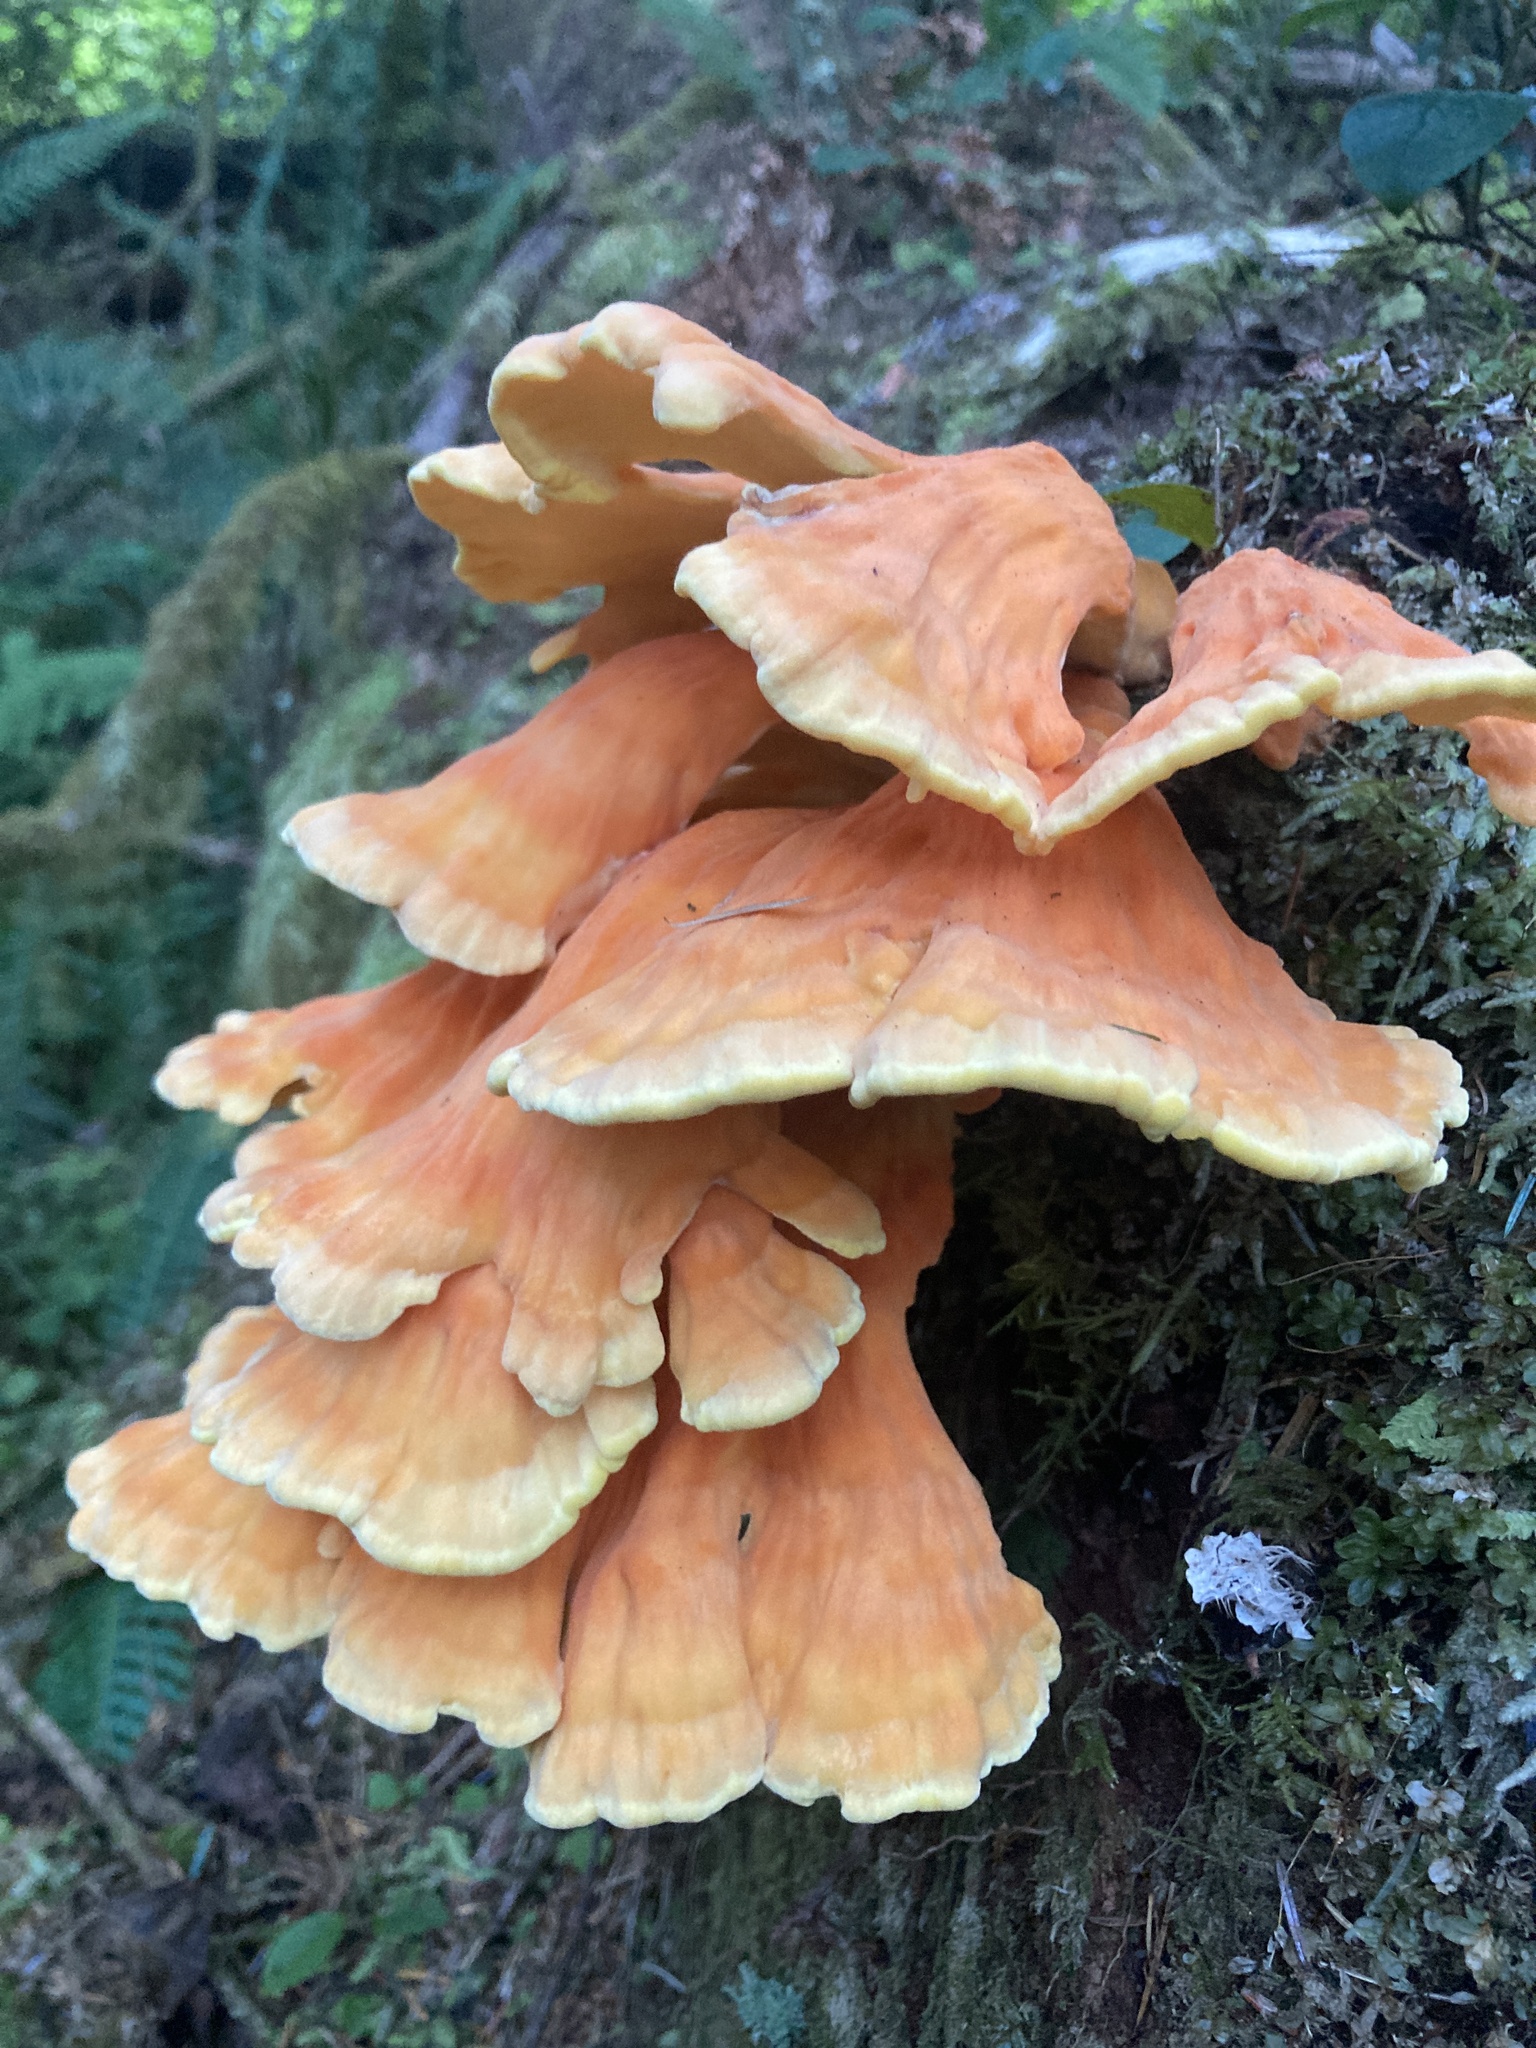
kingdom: Fungi
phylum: Basidiomycota
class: Agaricomycetes
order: Polyporales
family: Laetiporaceae
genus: Laetiporus
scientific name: Laetiporus conifericola
